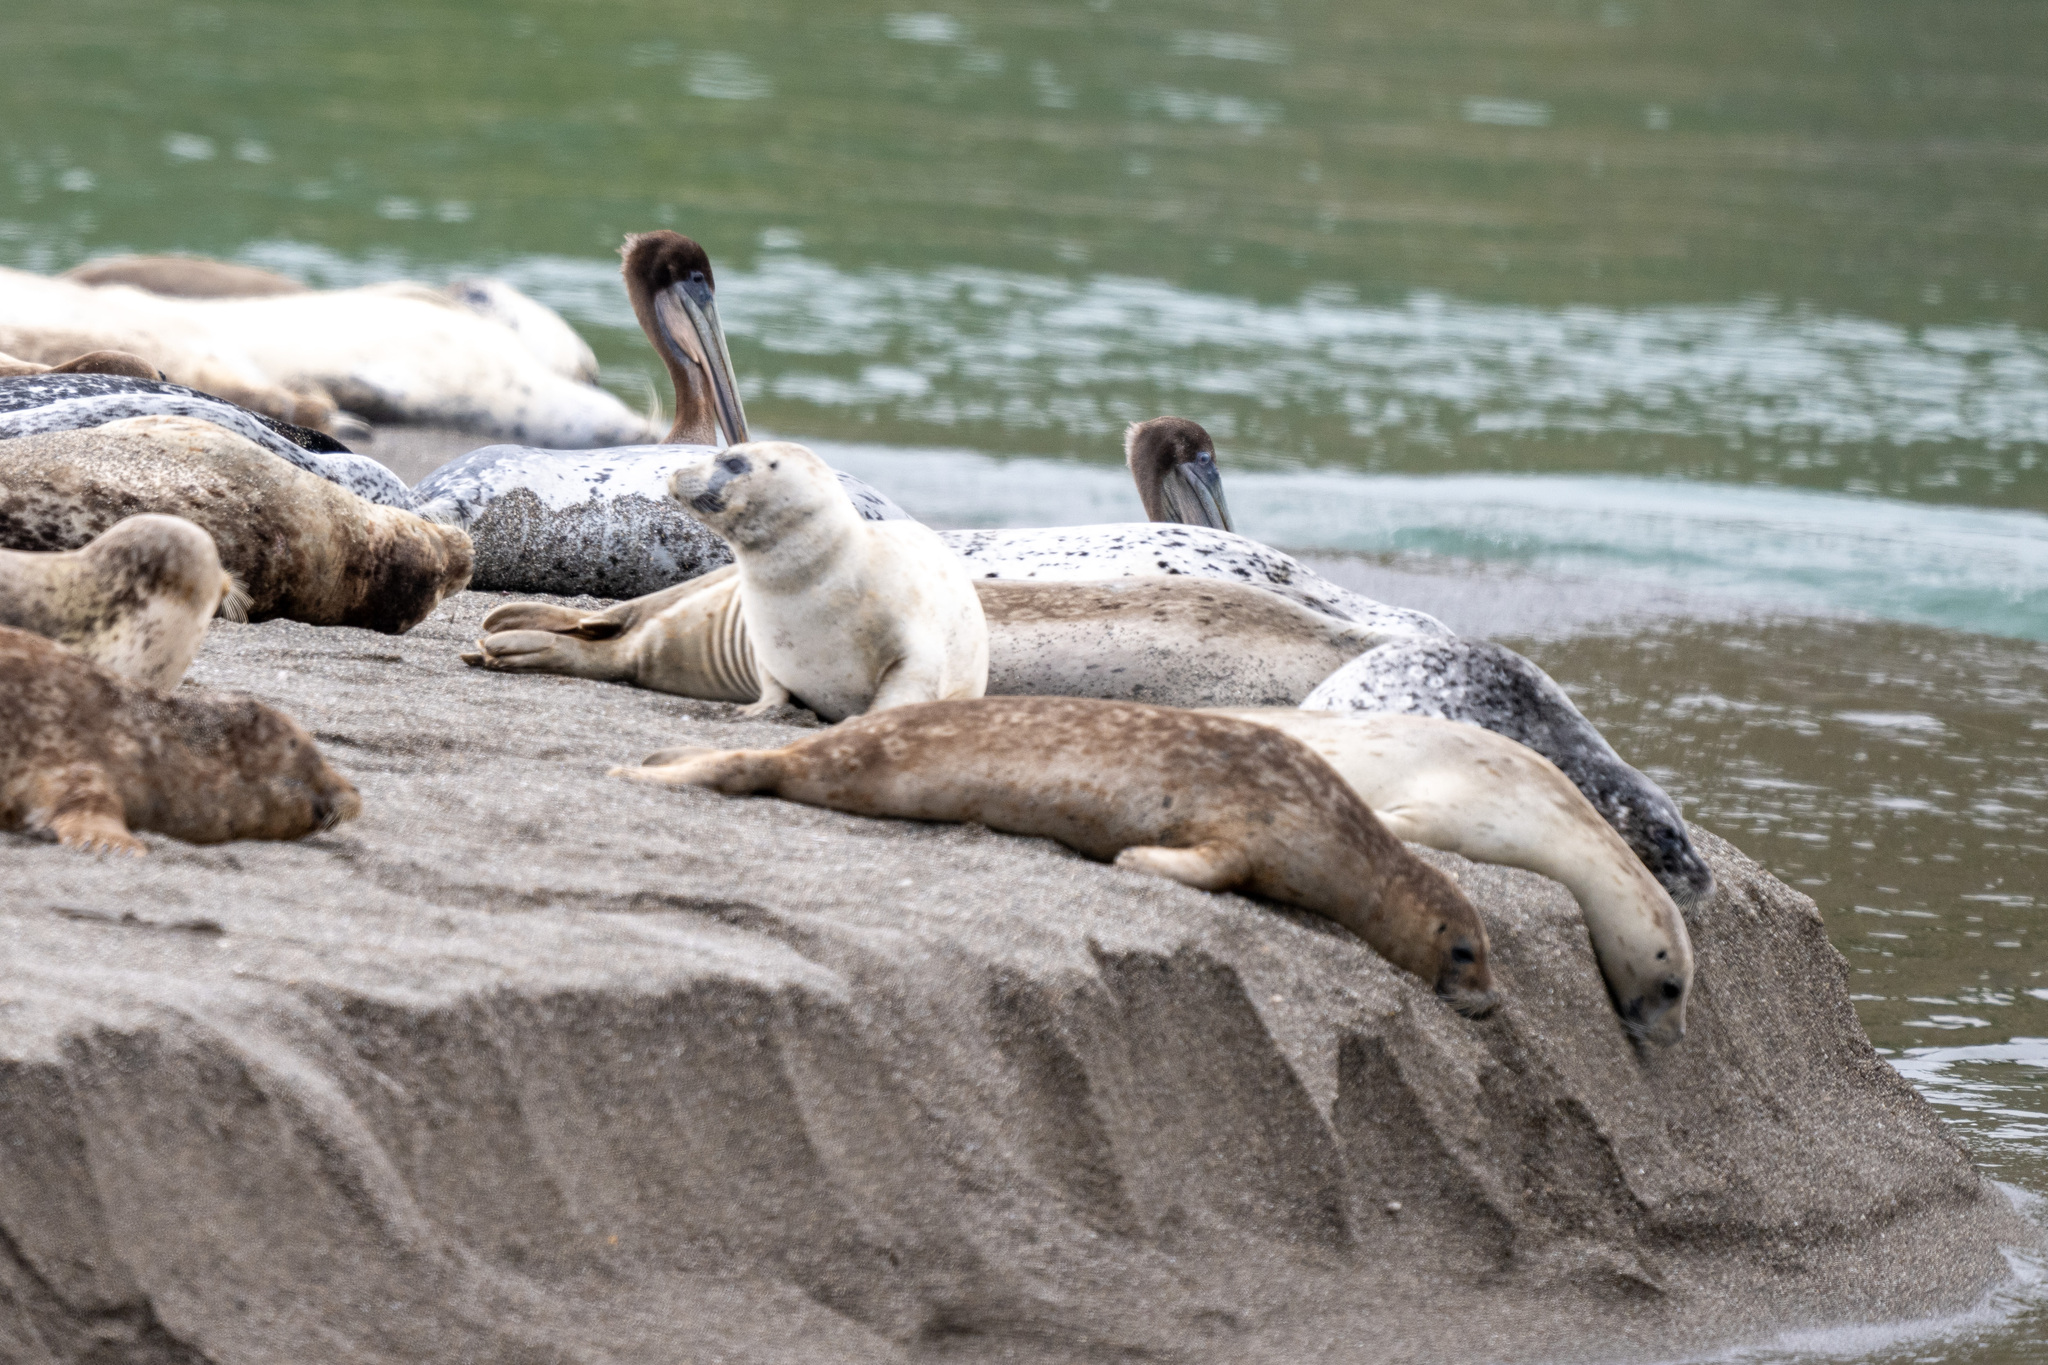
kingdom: Animalia
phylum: Chordata
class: Mammalia
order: Carnivora
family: Phocidae
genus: Phoca
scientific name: Phoca vitulina
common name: Harbor seal
